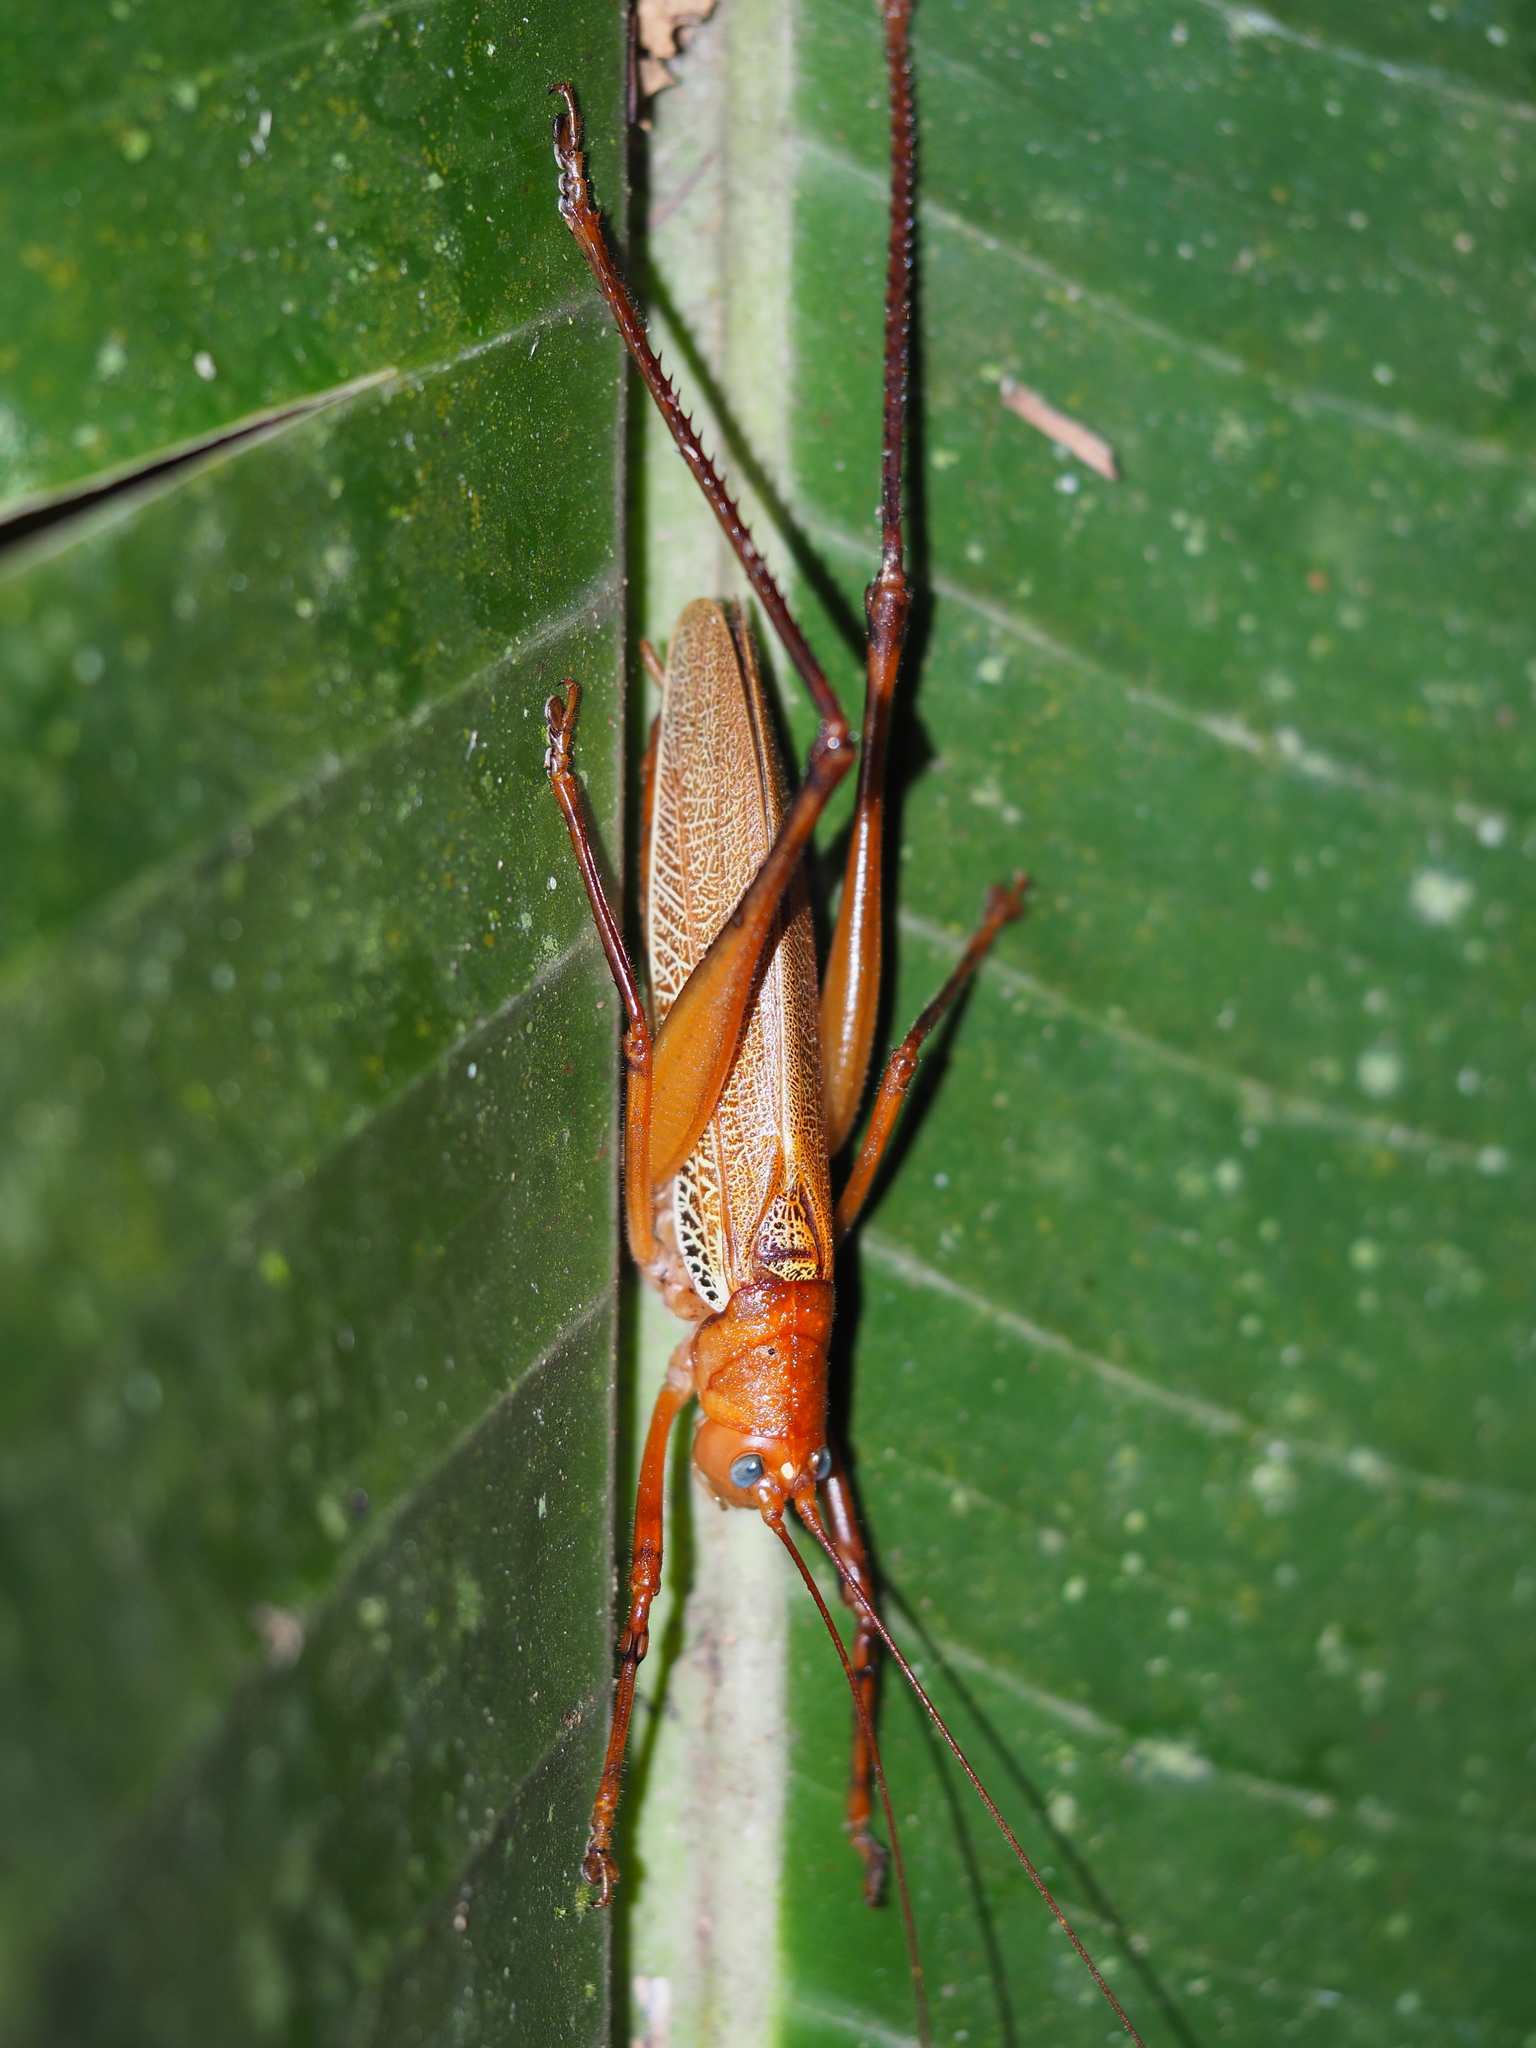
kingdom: Animalia
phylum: Arthropoda
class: Insecta
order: Orthoptera
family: Tettigoniidae
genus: Ischnomela
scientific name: Ischnomela pulchripennis
